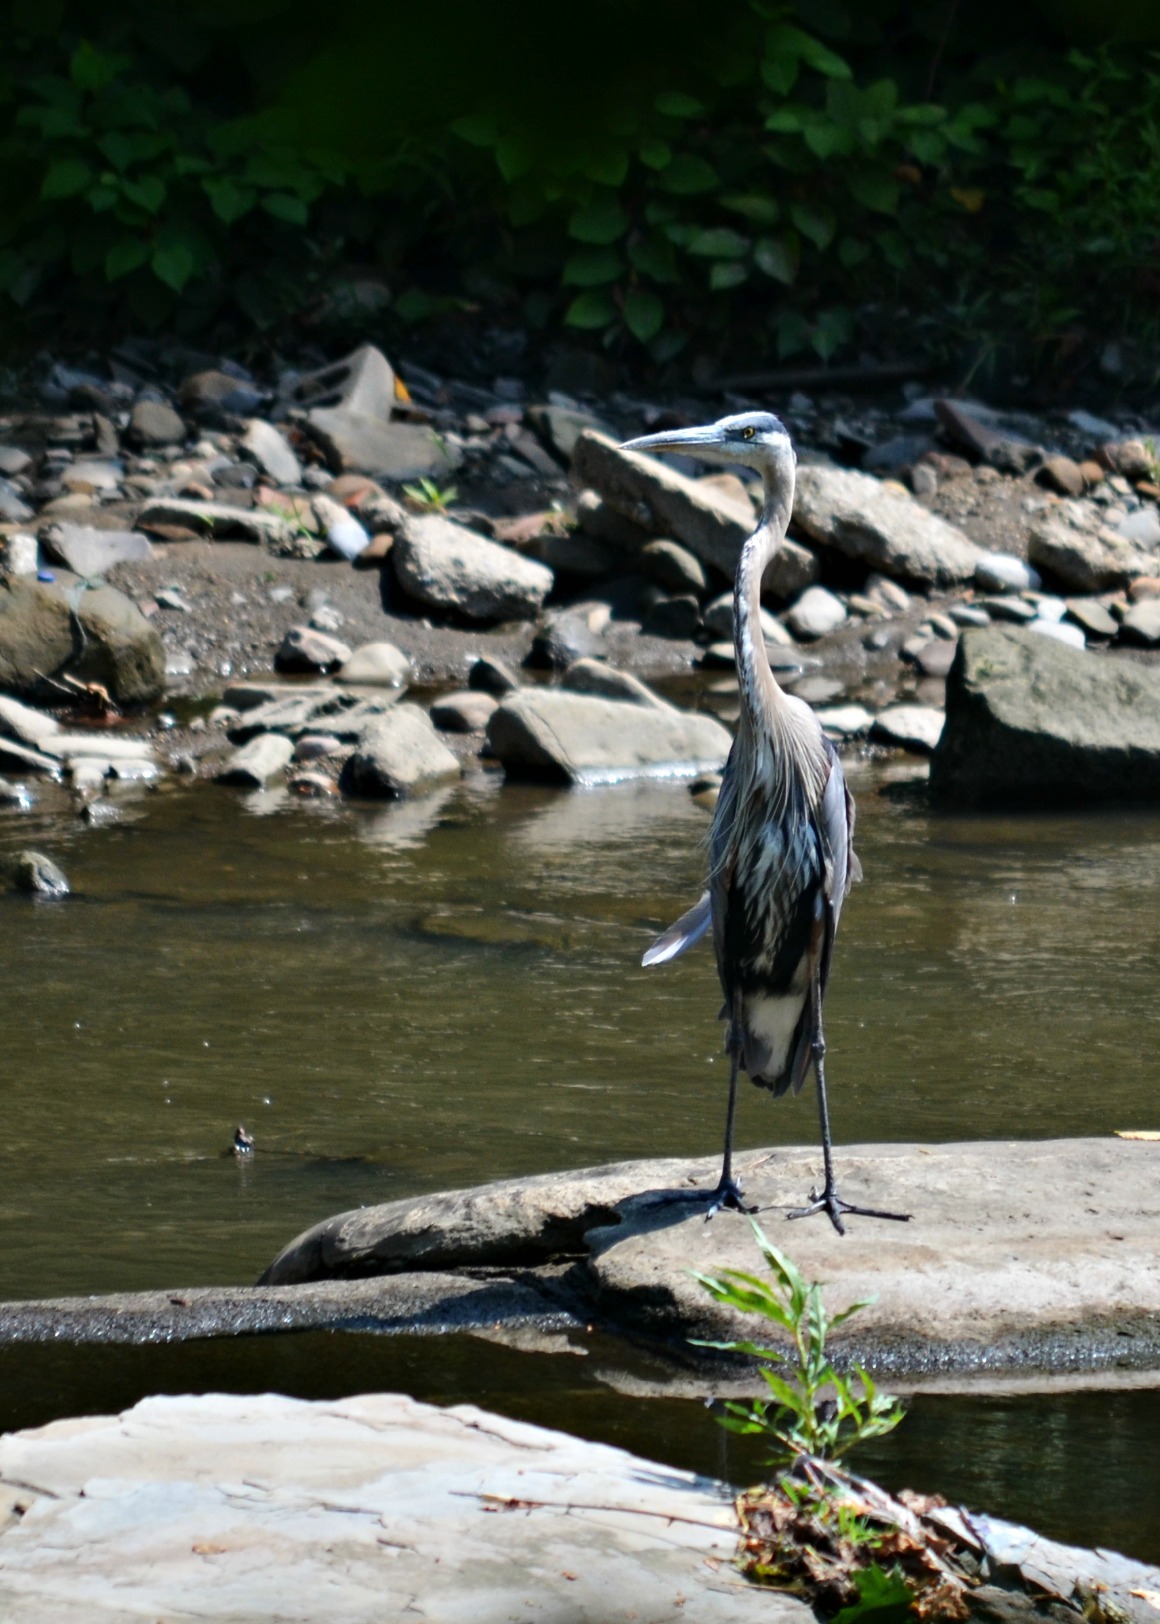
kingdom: Animalia
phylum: Chordata
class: Aves
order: Pelecaniformes
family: Ardeidae
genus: Ardea
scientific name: Ardea herodias
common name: Great blue heron
